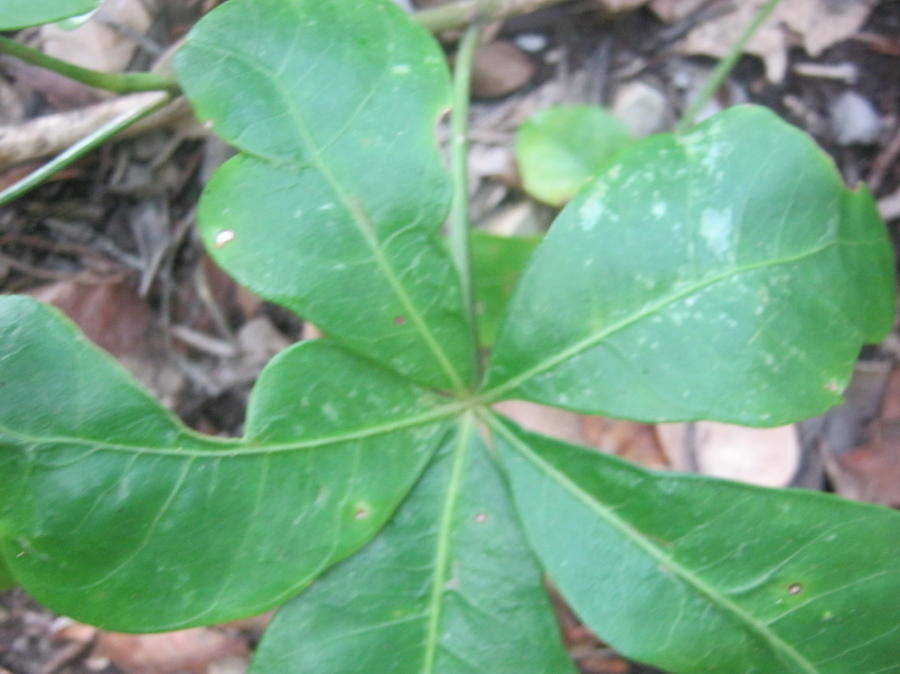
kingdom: Plantae
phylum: Tracheophyta
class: Magnoliopsida
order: Apiales
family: Araliaceae
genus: Cussonia
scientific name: Cussonia thyrsiflora
